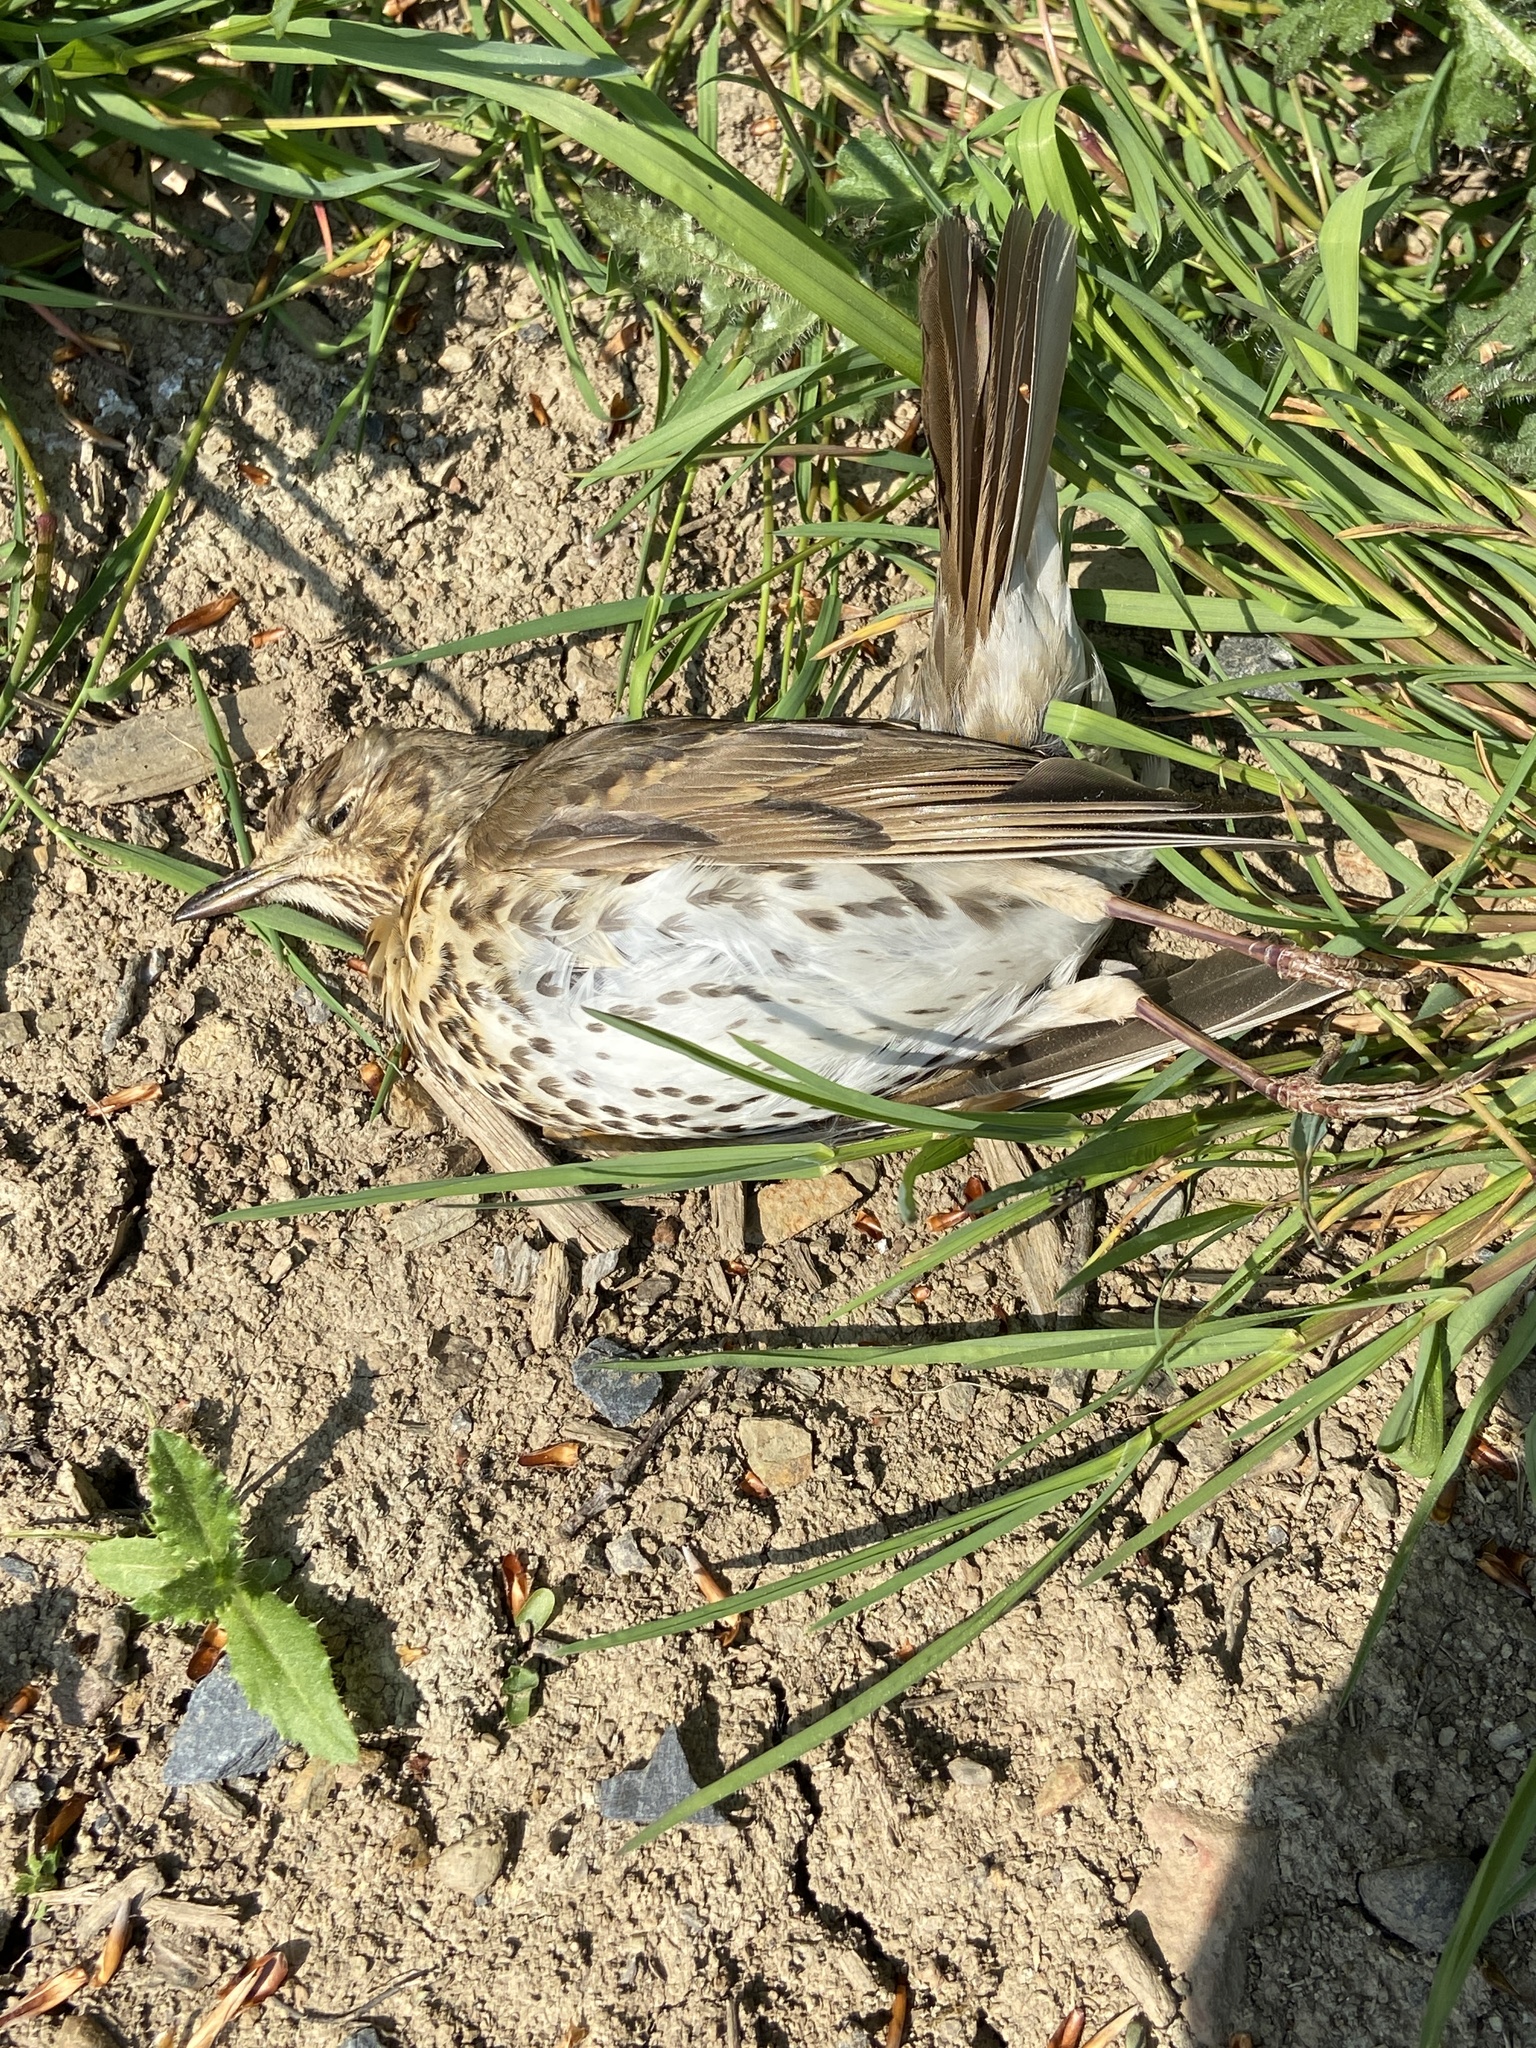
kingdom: Animalia
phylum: Chordata
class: Aves
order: Passeriformes
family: Turdidae
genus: Turdus
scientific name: Turdus philomelos
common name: Song thrush
